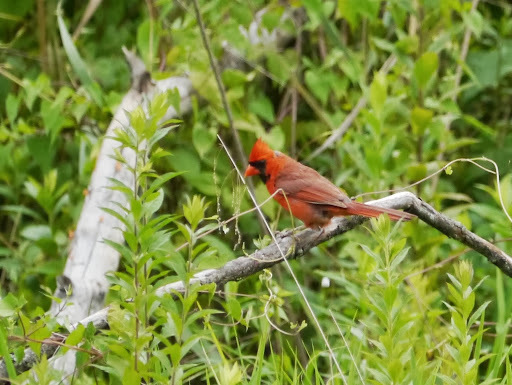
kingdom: Animalia
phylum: Chordata
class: Aves
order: Passeriformes
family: Cardinalidae
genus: Cardinalis
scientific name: Cardinalis cardinalis
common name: Northern cardinal
